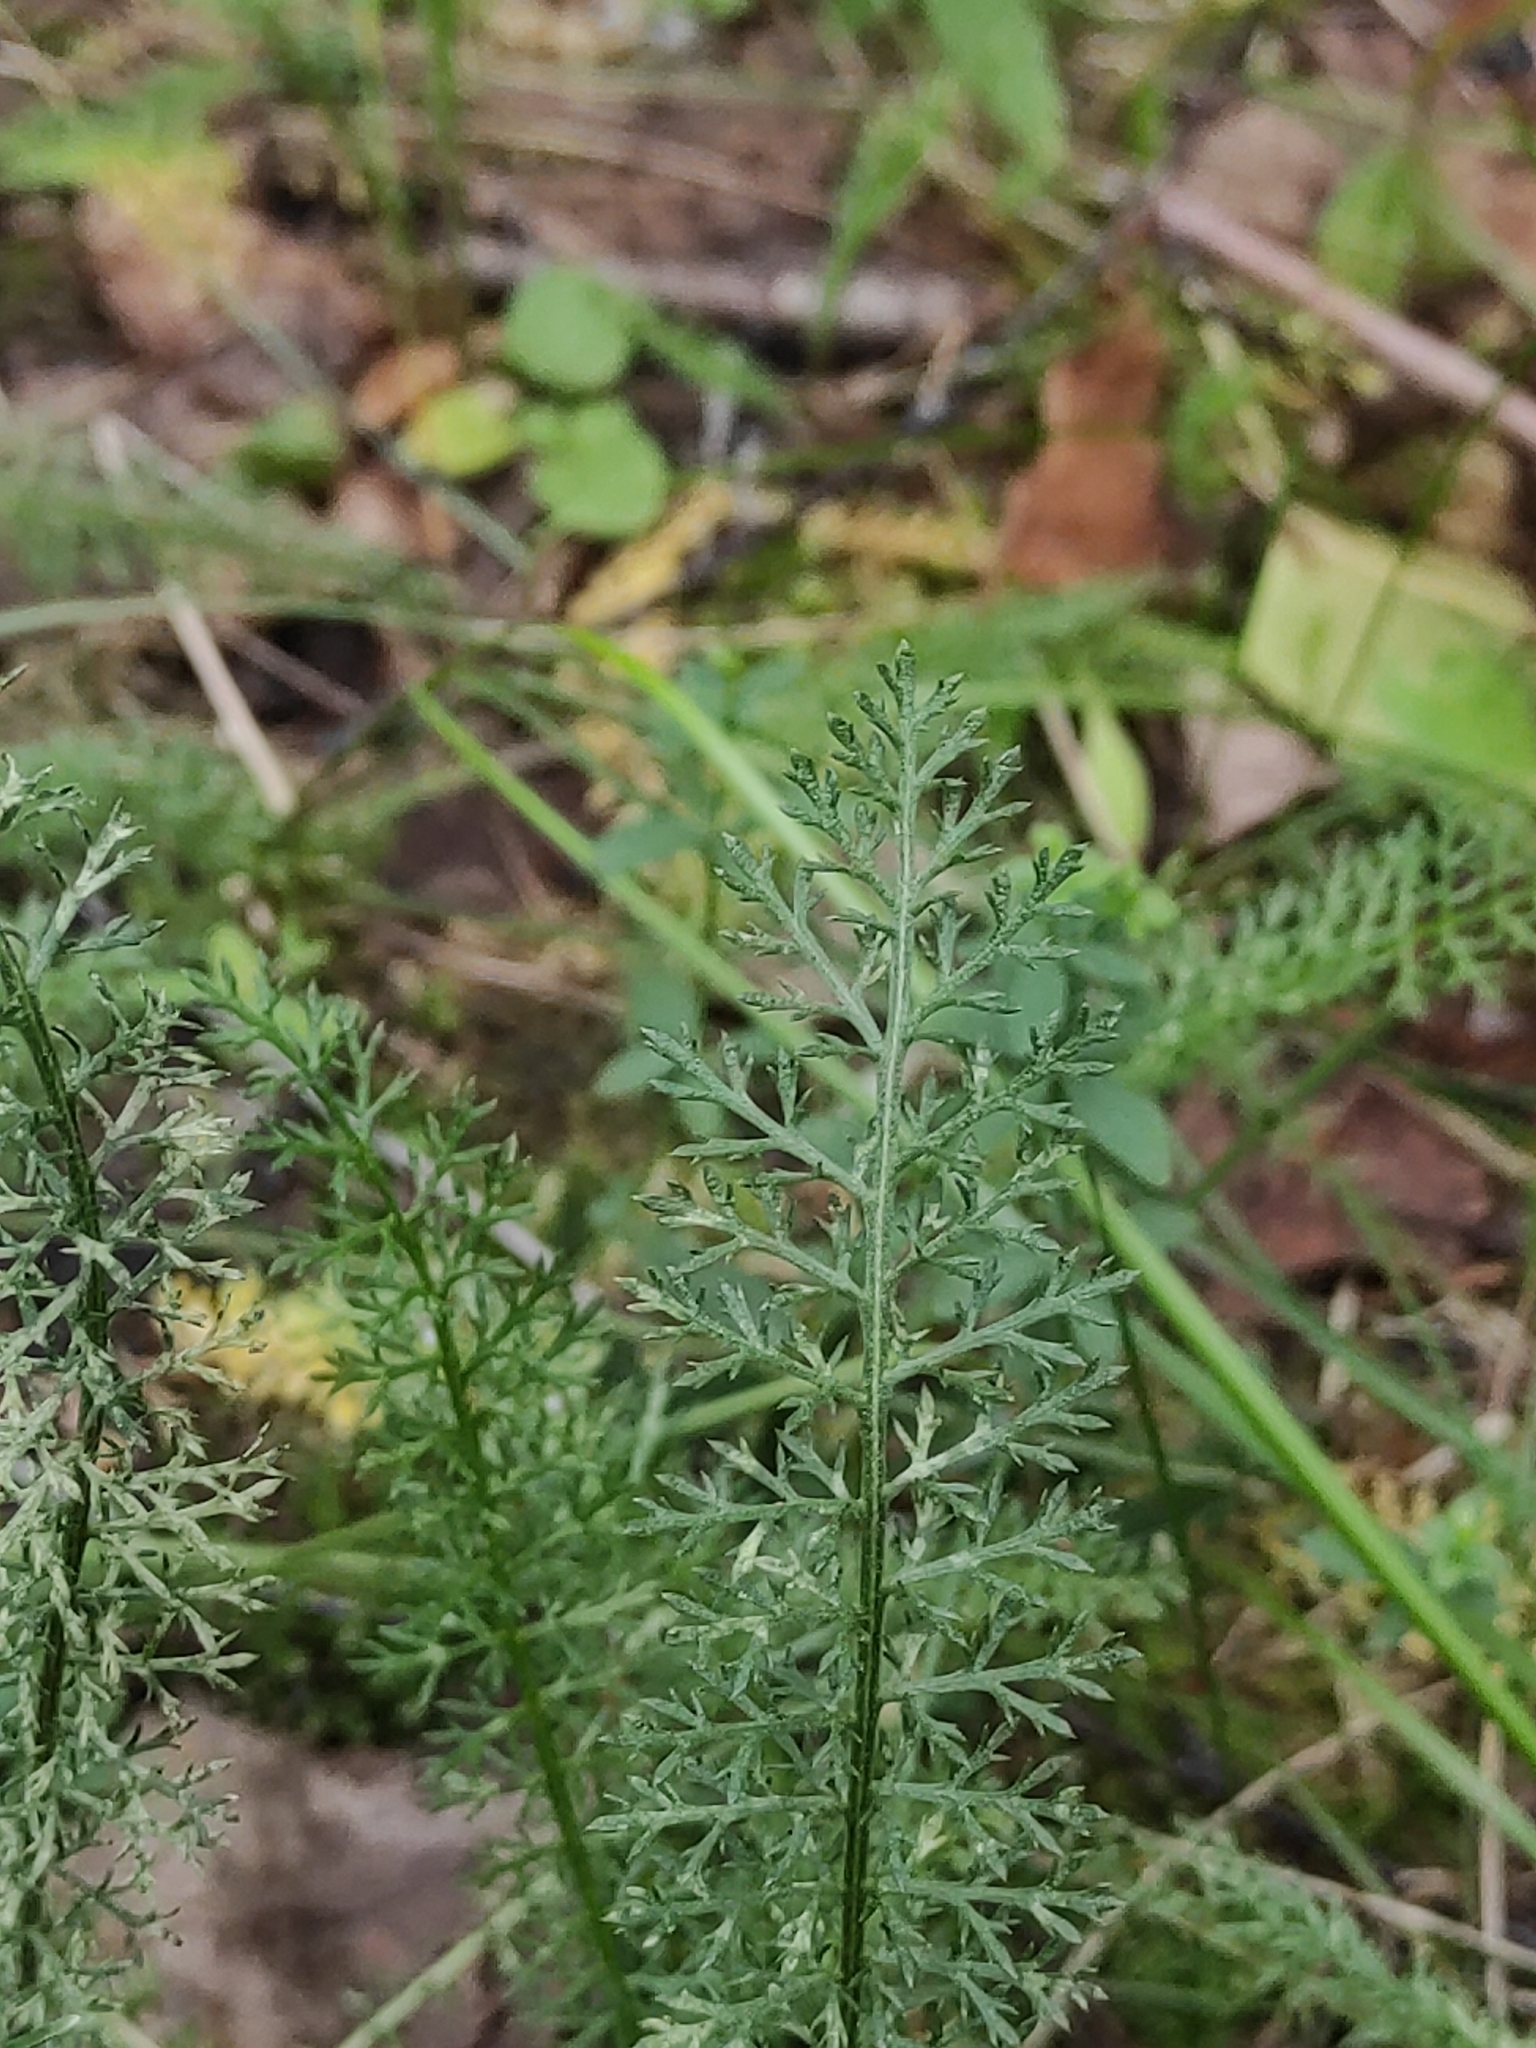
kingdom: Plantae
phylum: Tracheophyta
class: Magnoliopsida
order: Asterales
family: Asteraceae
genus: Achillea
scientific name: Achillea millefolium
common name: Yarrow
